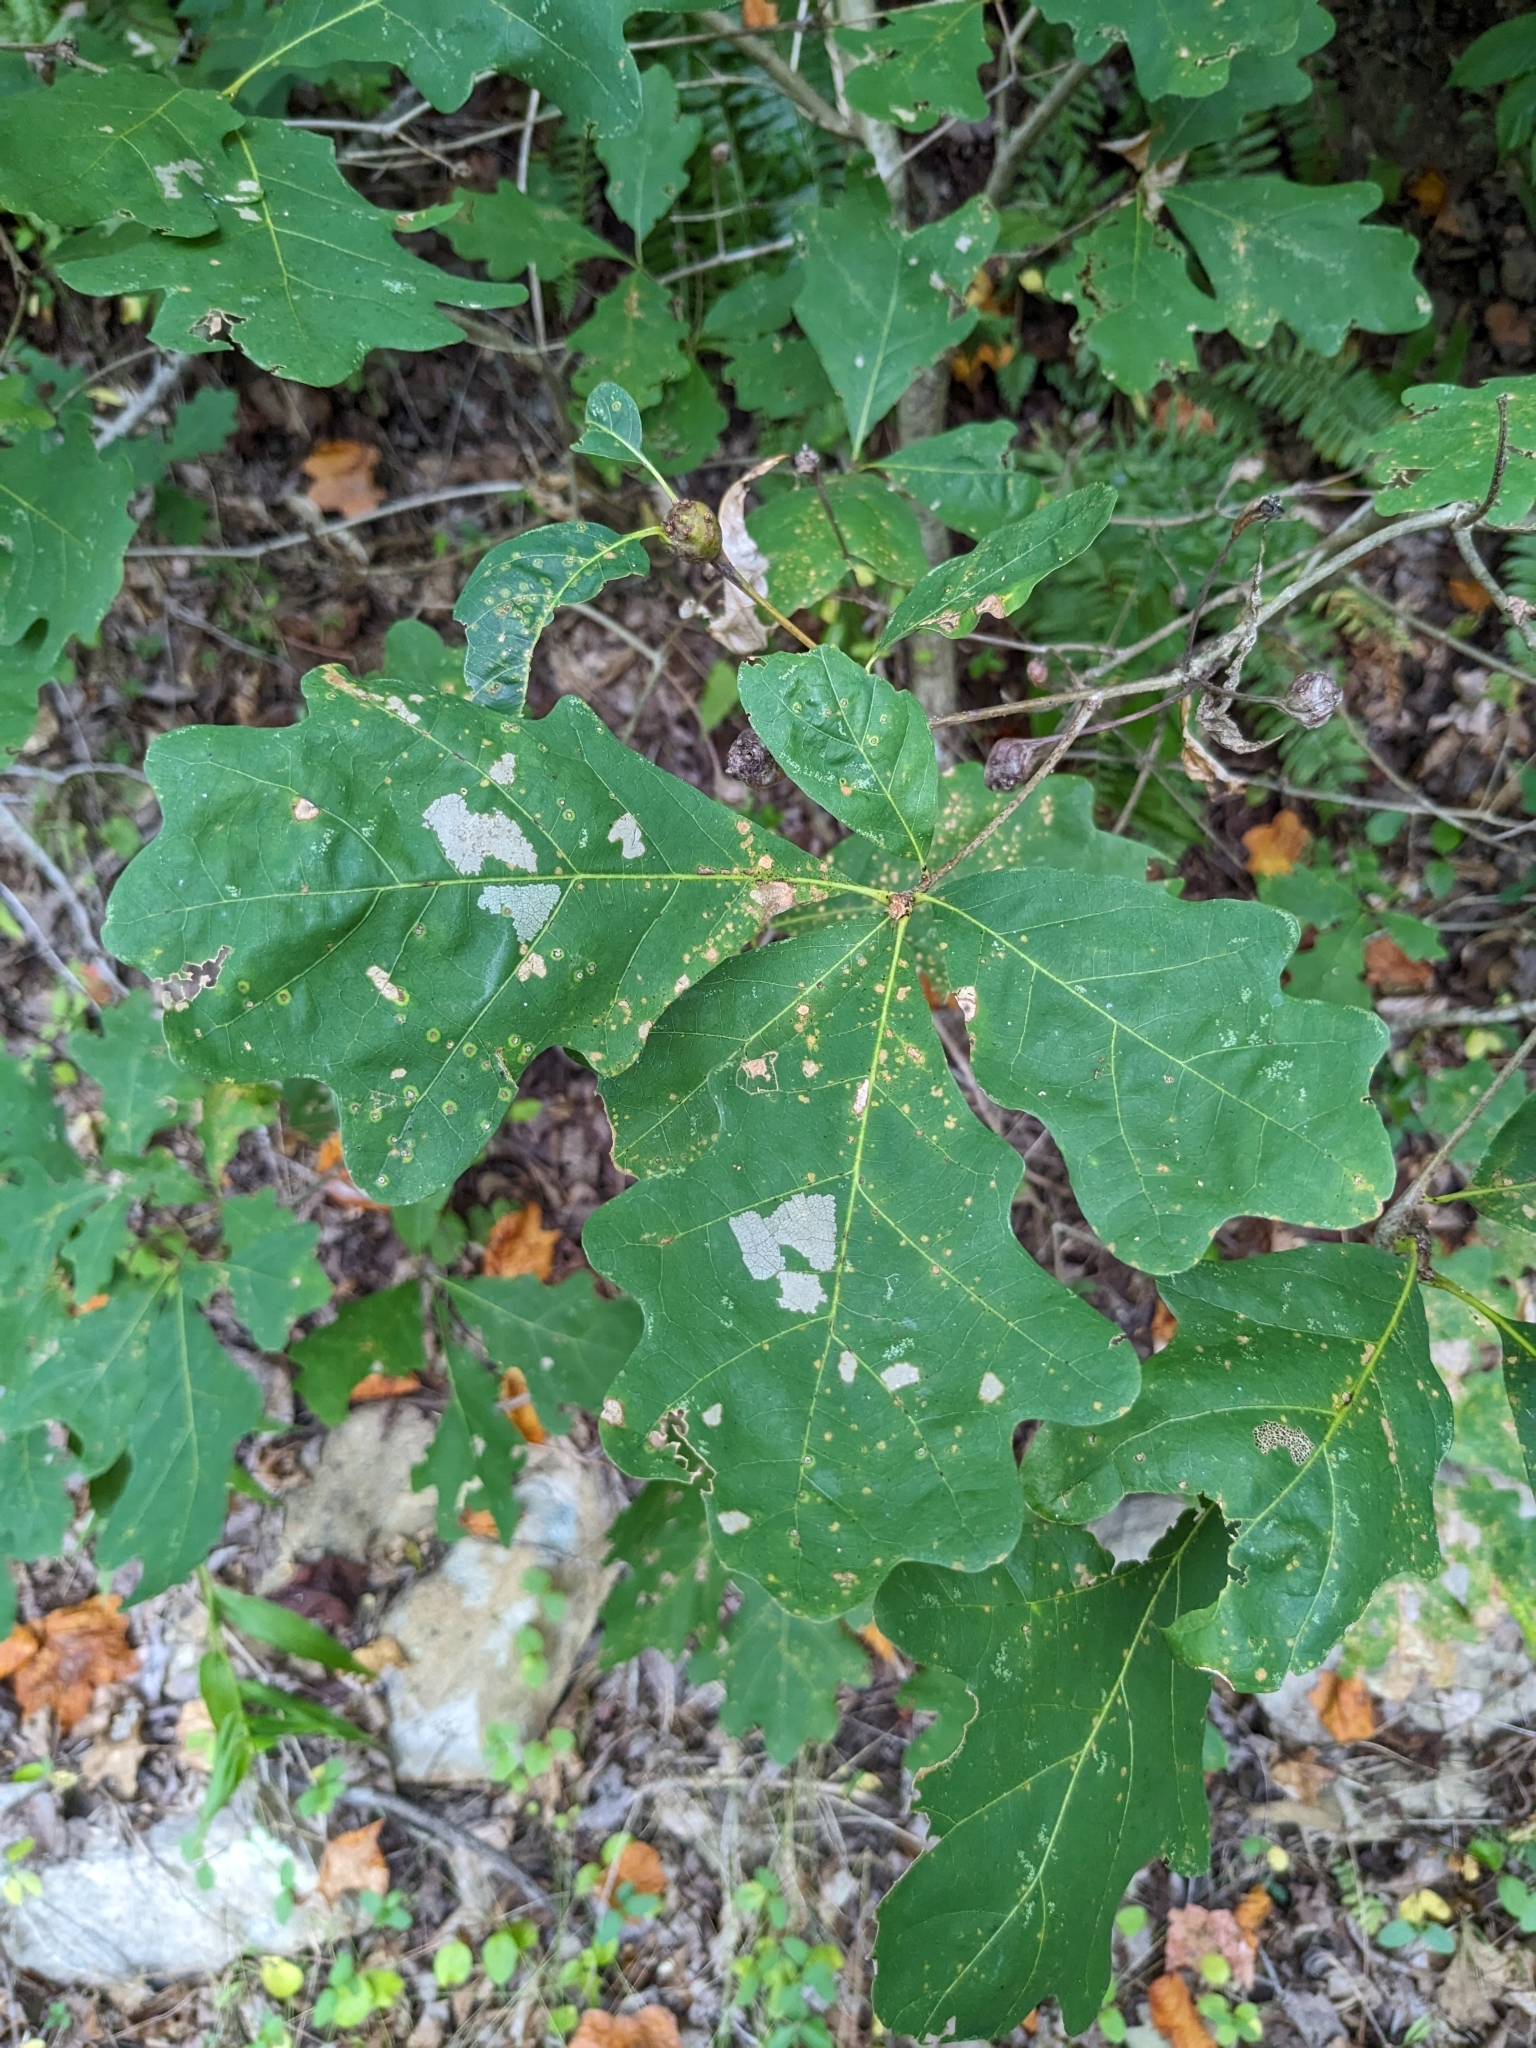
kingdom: Animalia
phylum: Arthropoda
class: Insecta
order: Hymenoptera
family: Cynipidae
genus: Callirhytis
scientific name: Callirhytis clavula
